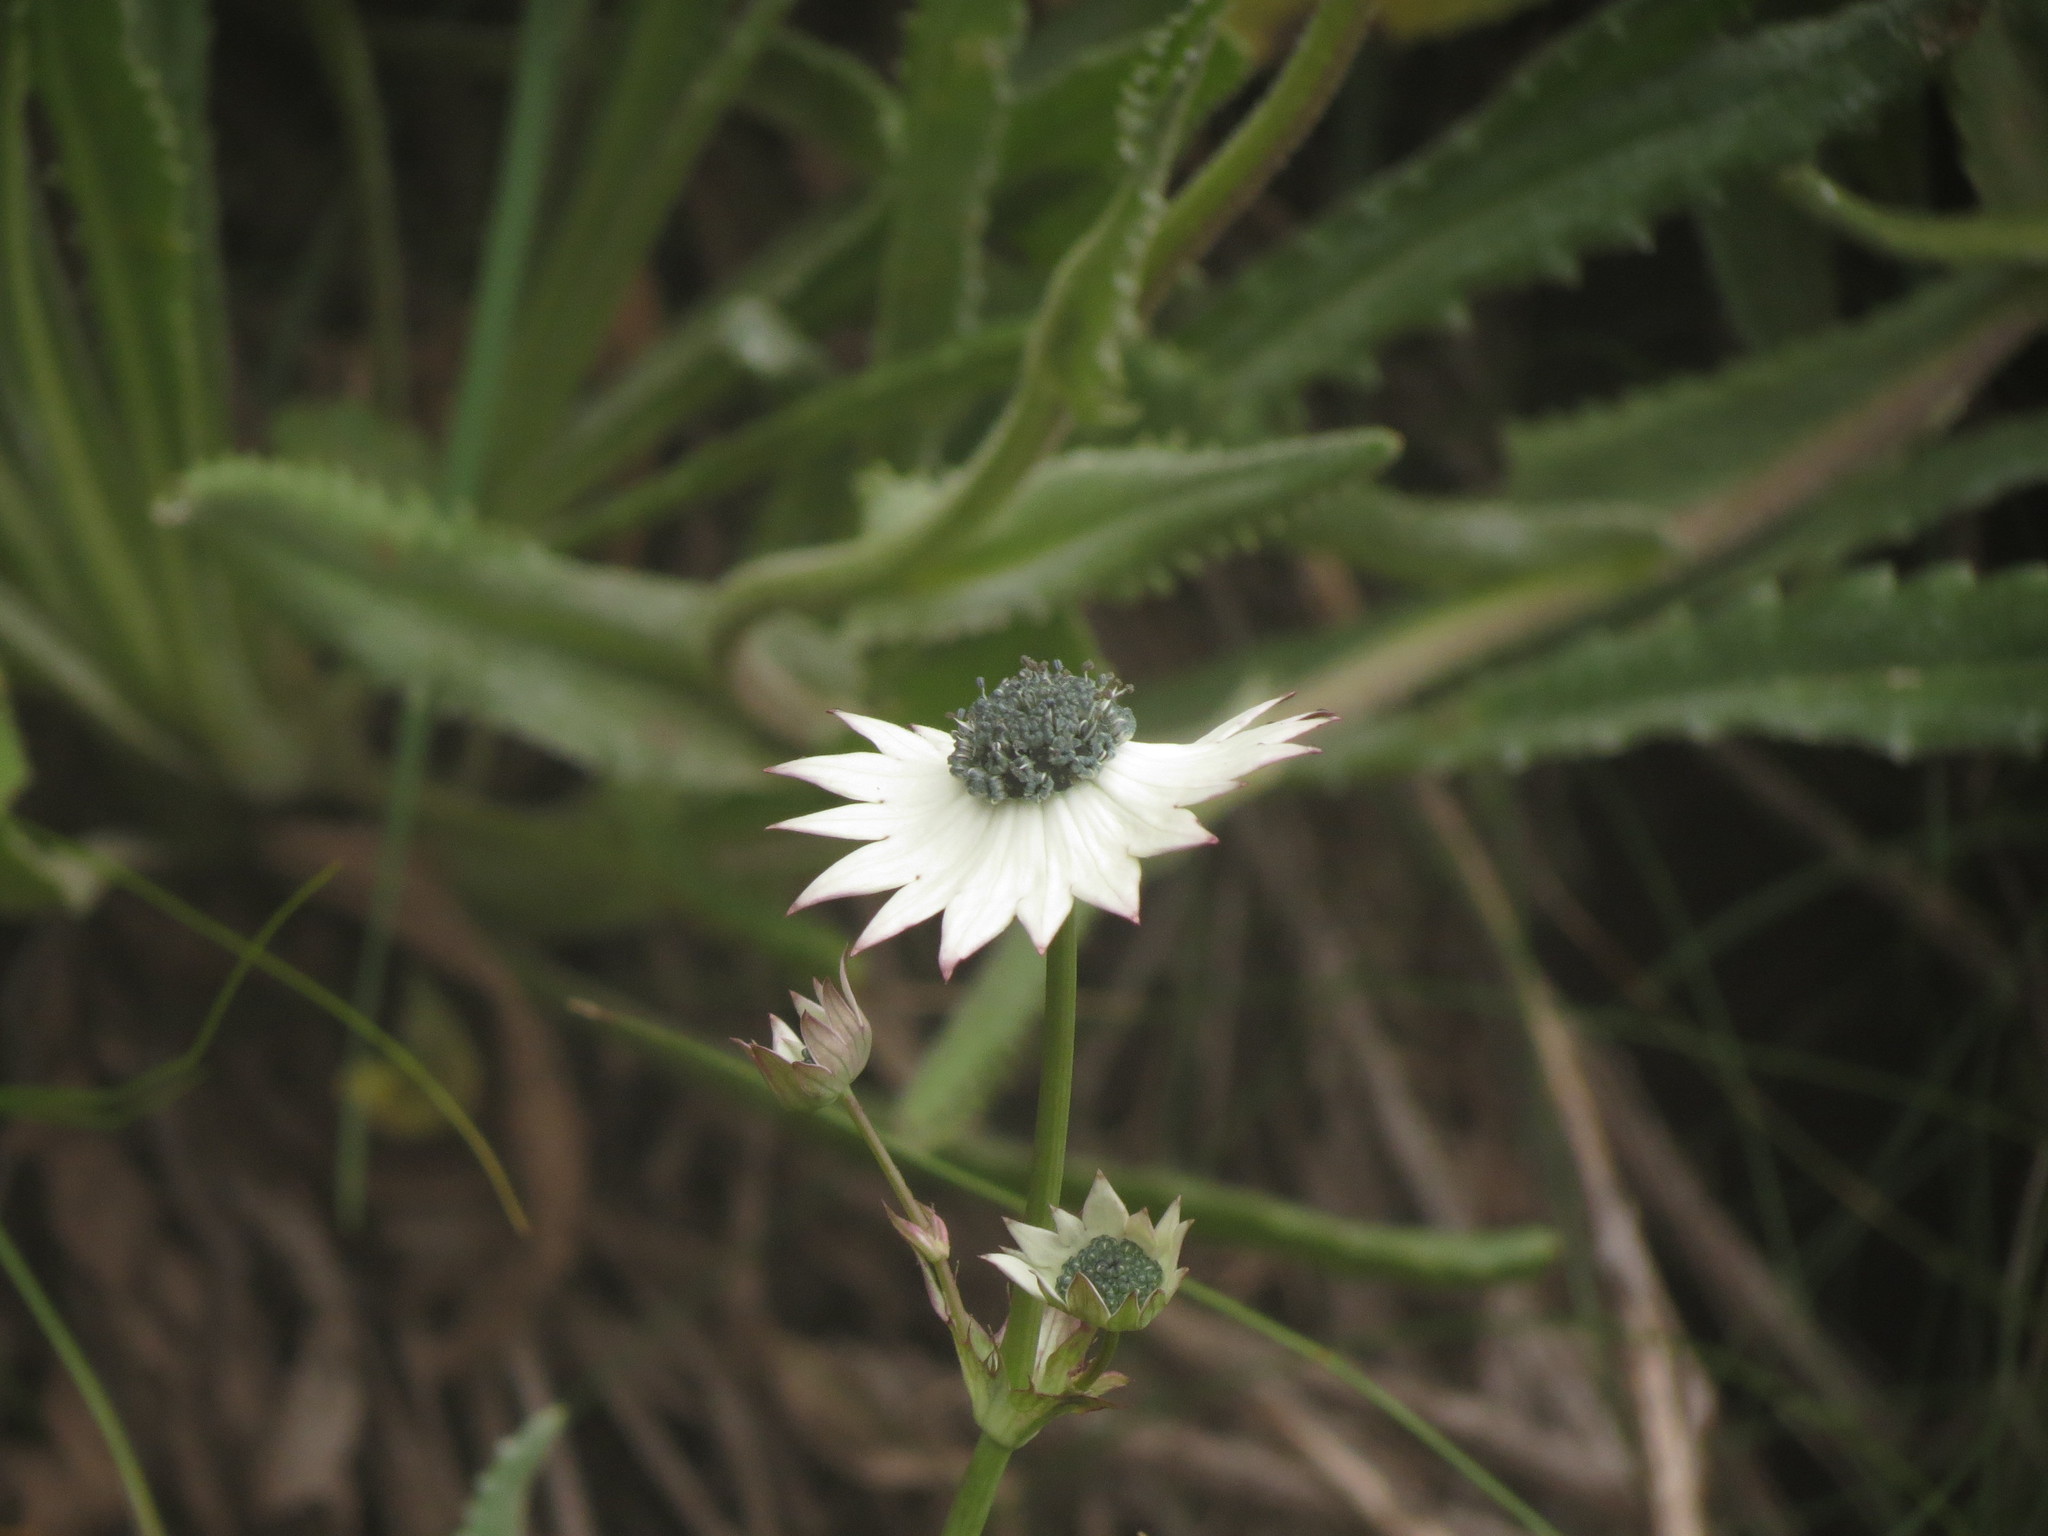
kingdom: Plantae
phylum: Tracheophyta
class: Magnoliopsida
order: Apiales
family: Apiaceae
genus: Alepidea
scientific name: Alepidea thodei
